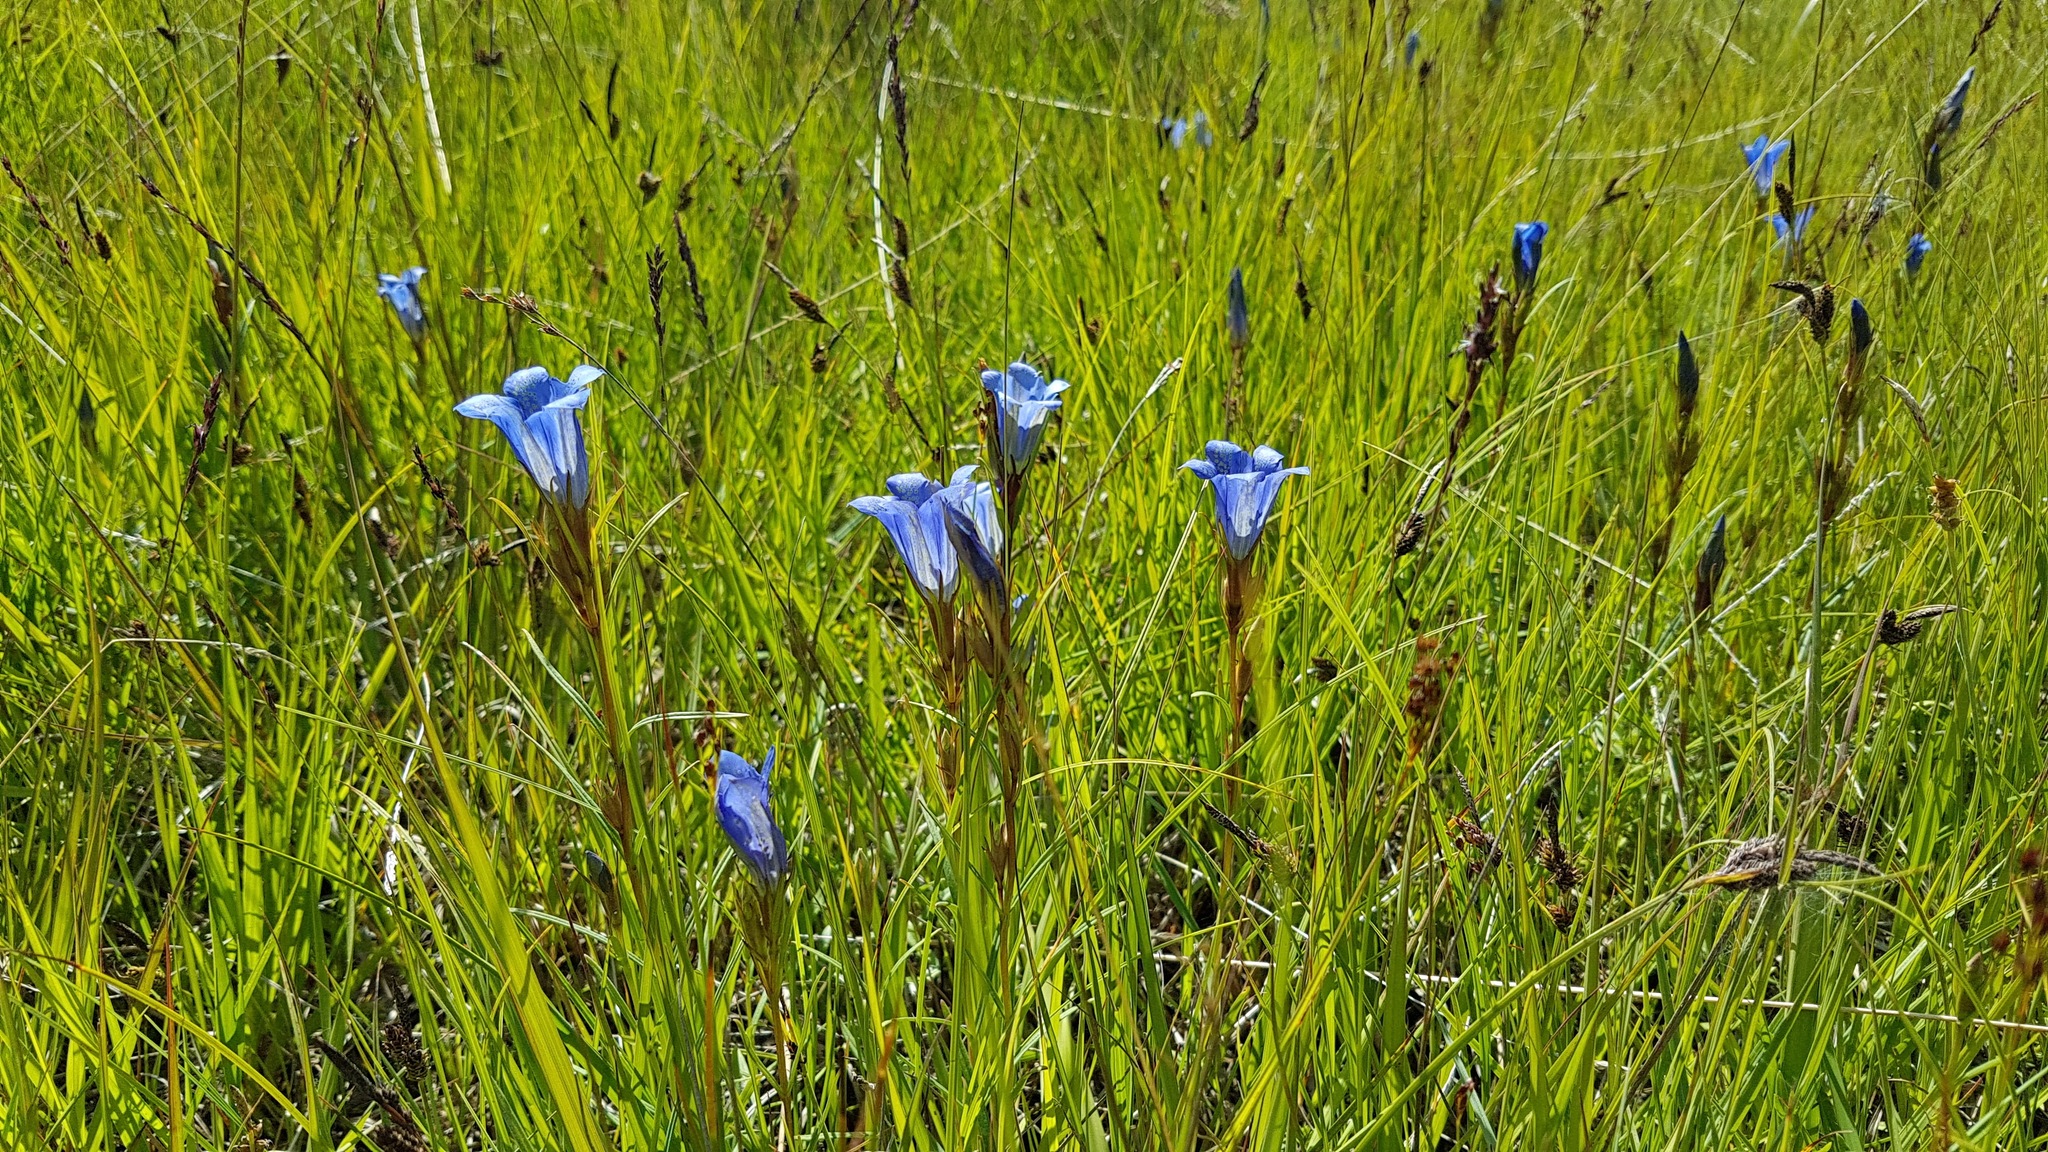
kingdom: Plantae
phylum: Tracheophyta
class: Magnoliopsida
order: Gentianales
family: Gentianaceae
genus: Gentiana
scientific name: Gentiana pneumonanthe
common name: Marsh gentian
